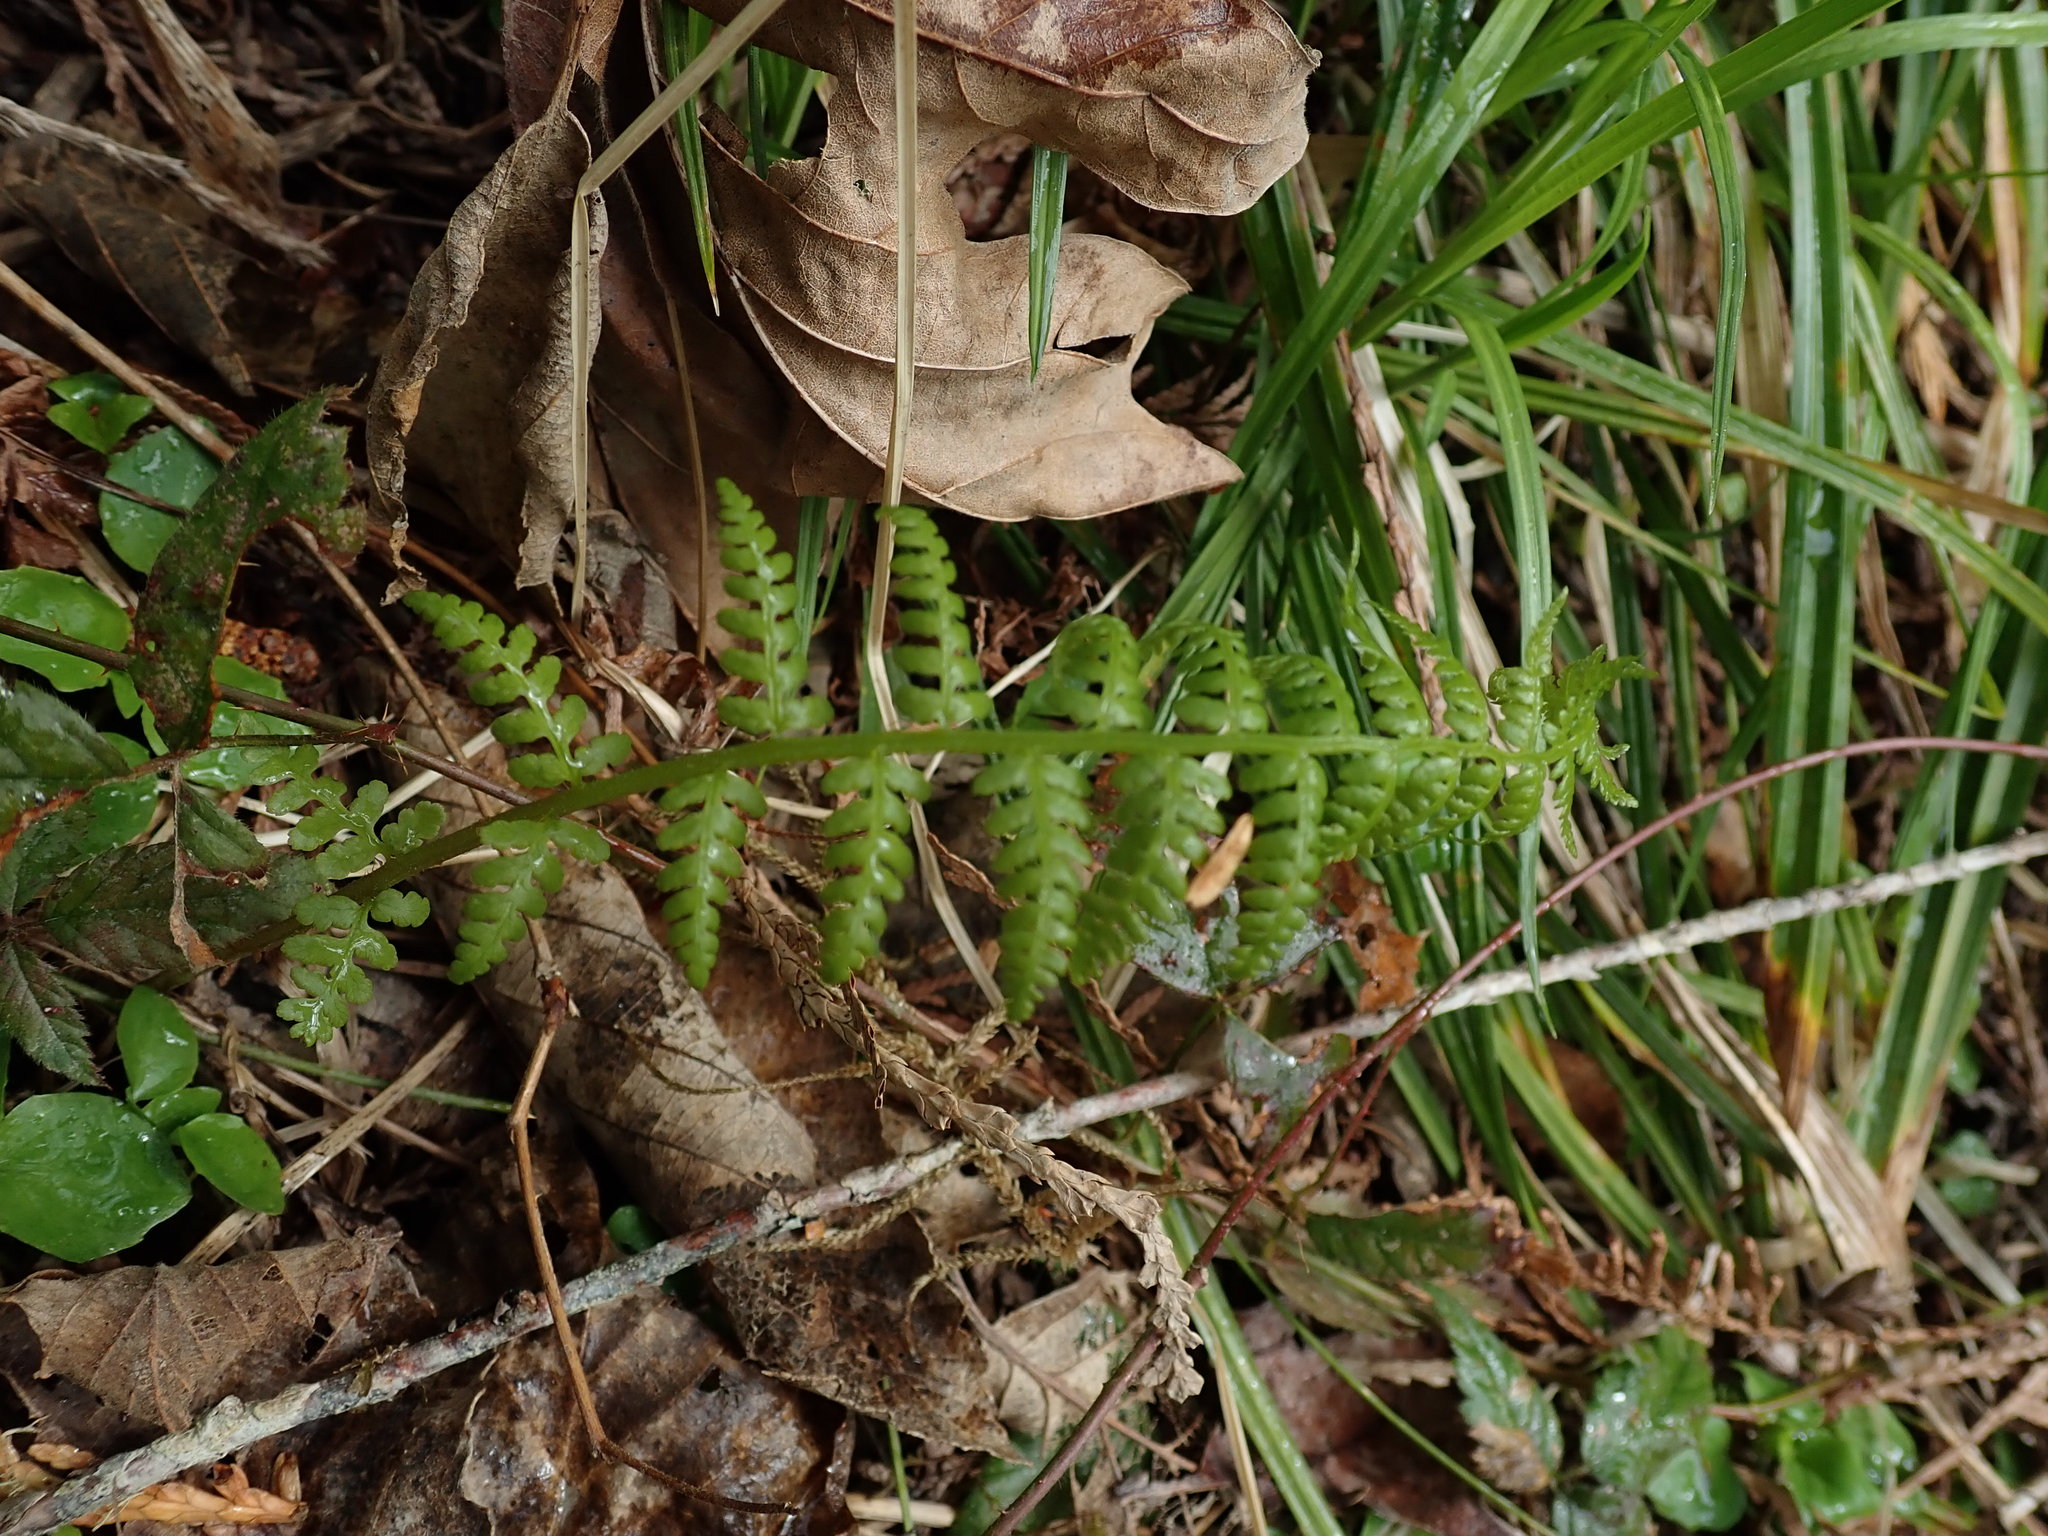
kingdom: Plantae
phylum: Tracheophyta
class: Polypodiopsida
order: Polypodiales
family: Athyriaceae
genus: Athyrium
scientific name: Athyrium filix-femina
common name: Lady fern
